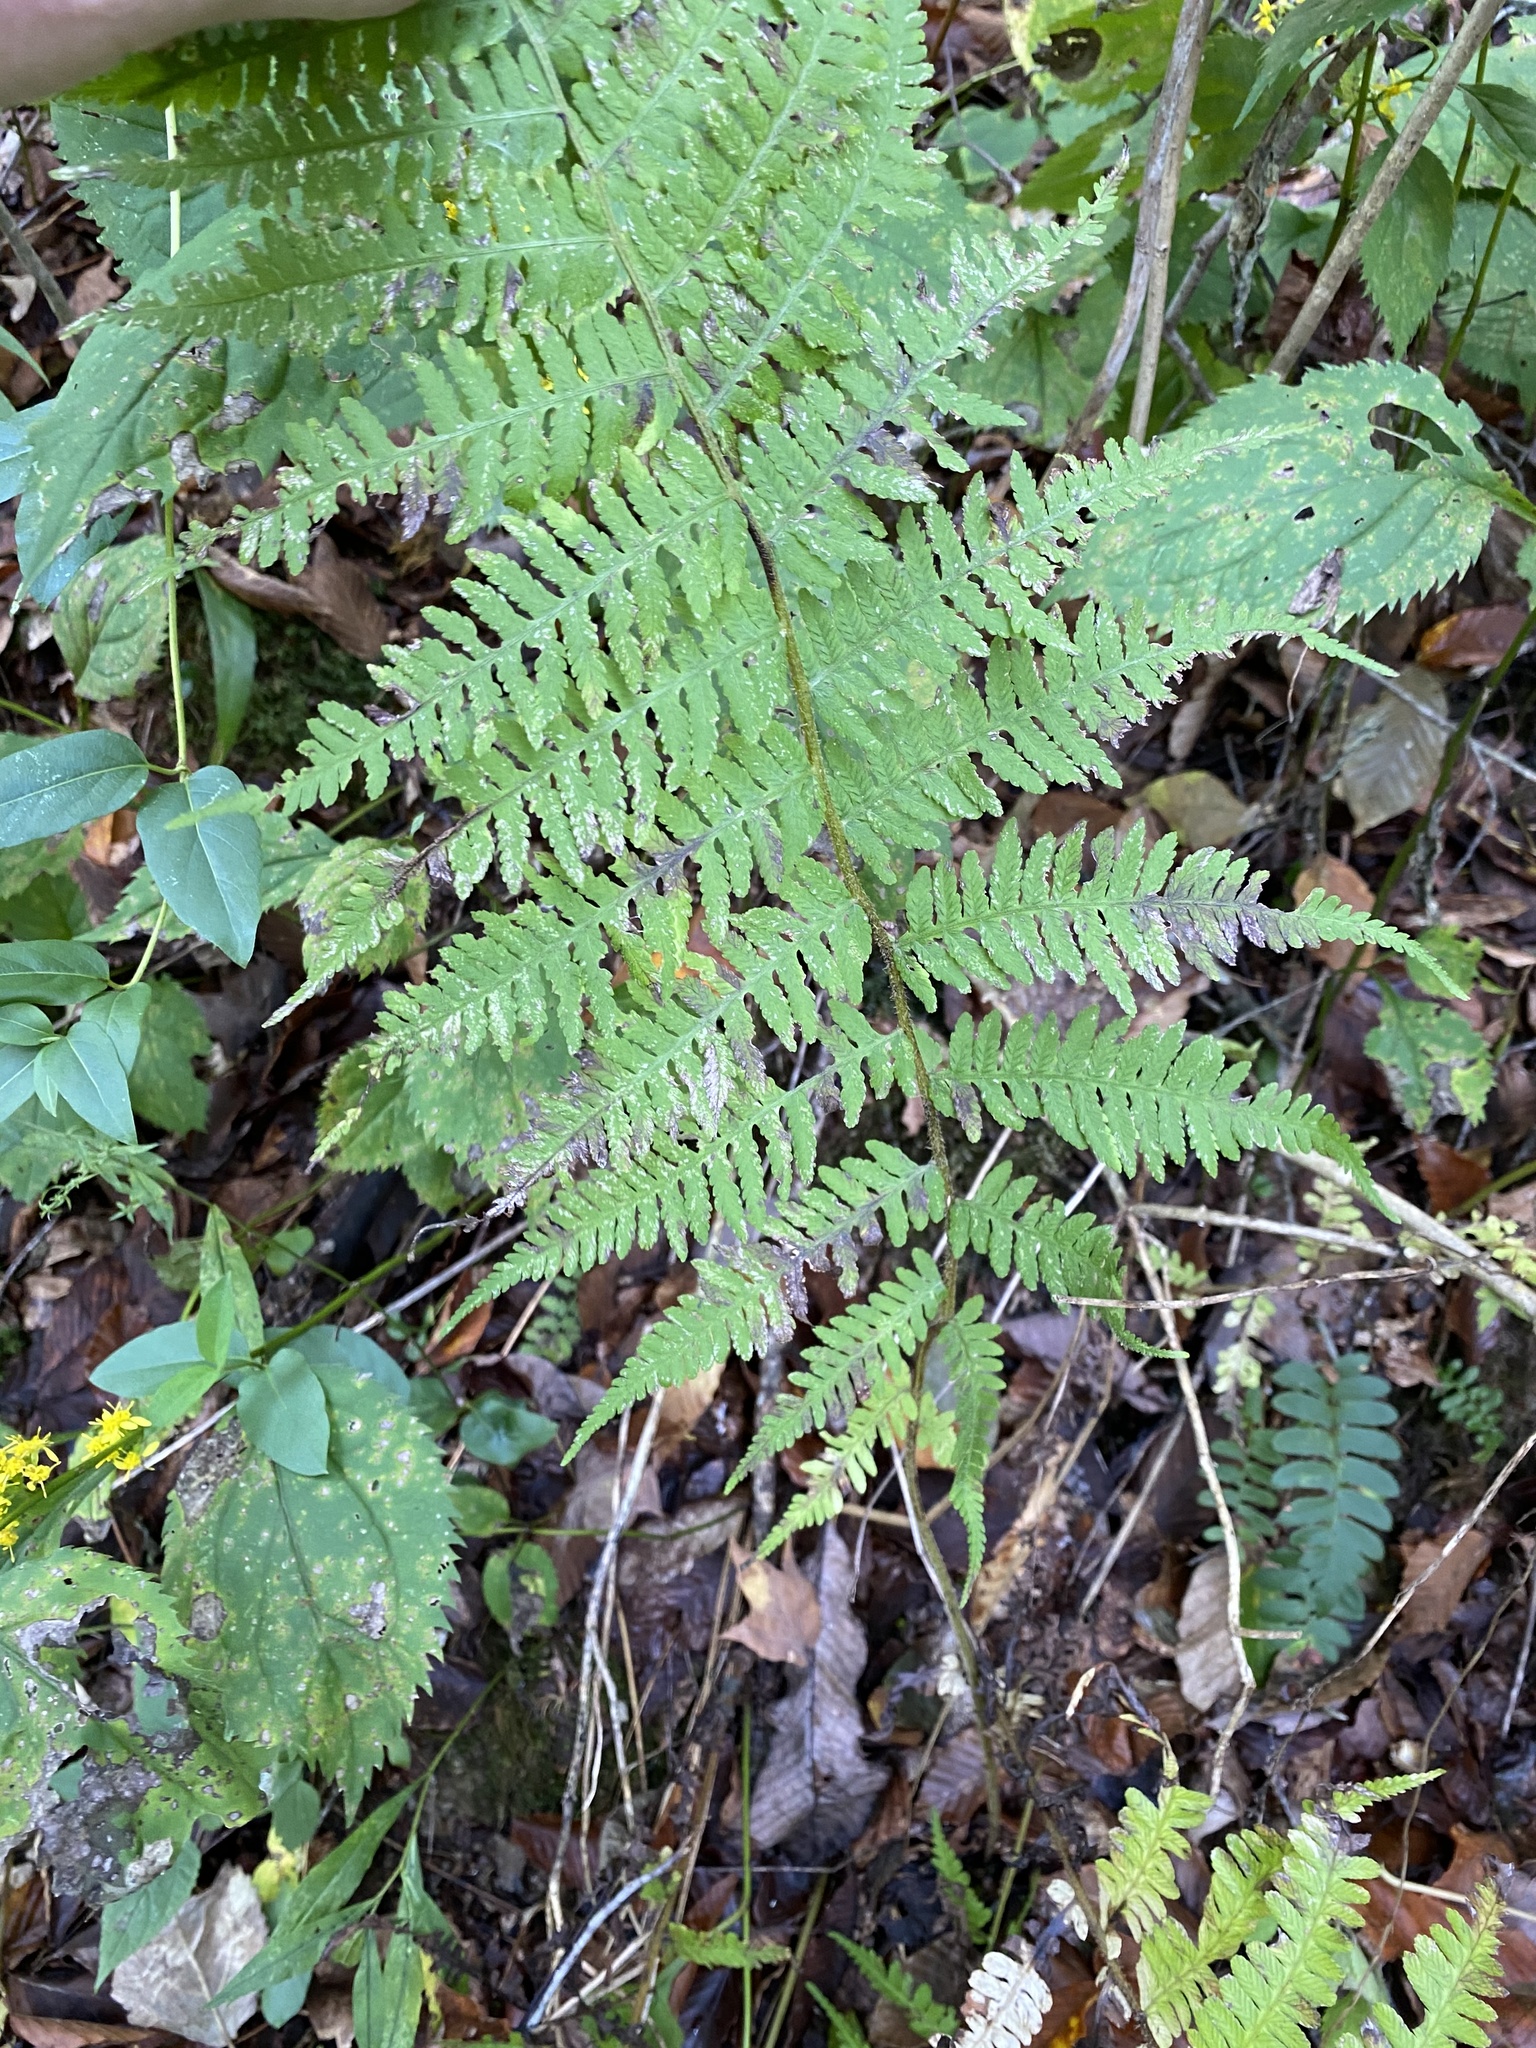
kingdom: Plantae
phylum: Tracheophyta
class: Polypodiopsida
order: Polypodiales
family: Thelypteridaceae
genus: Amauropelta
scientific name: Amauropelta noveboracensis
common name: New york fern
